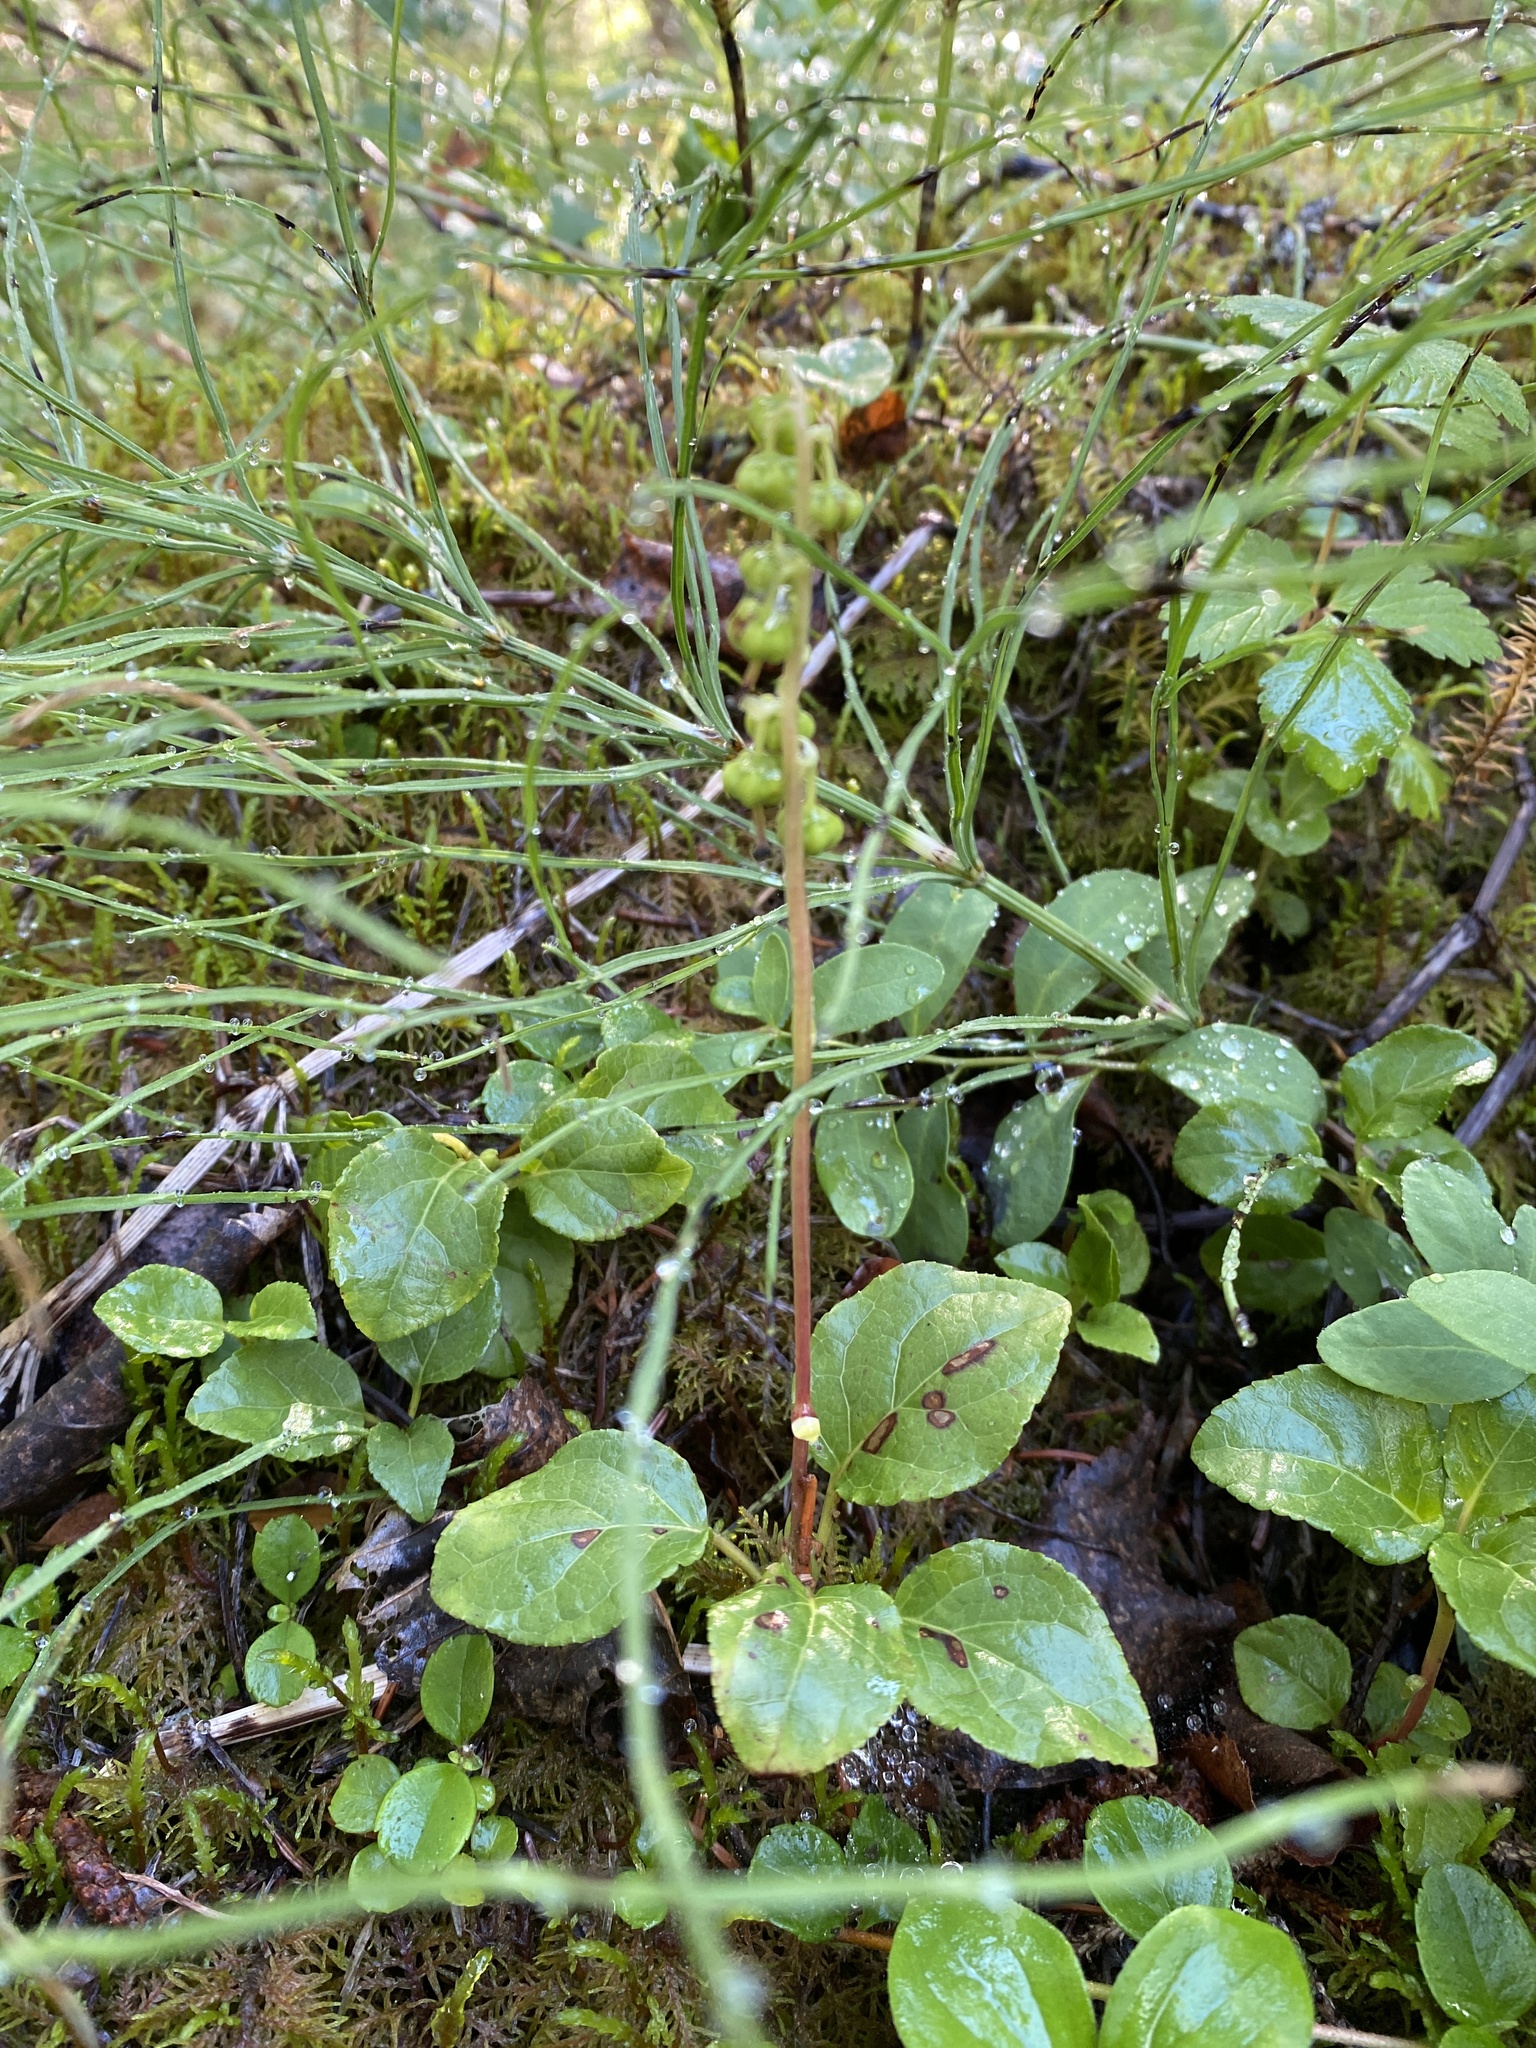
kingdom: Plantae
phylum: Tracheophyta
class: Magnoliopsida
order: Ericales
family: Ericaceae
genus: Orthilia
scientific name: Orthilia secunda
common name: One-sided orthilia
